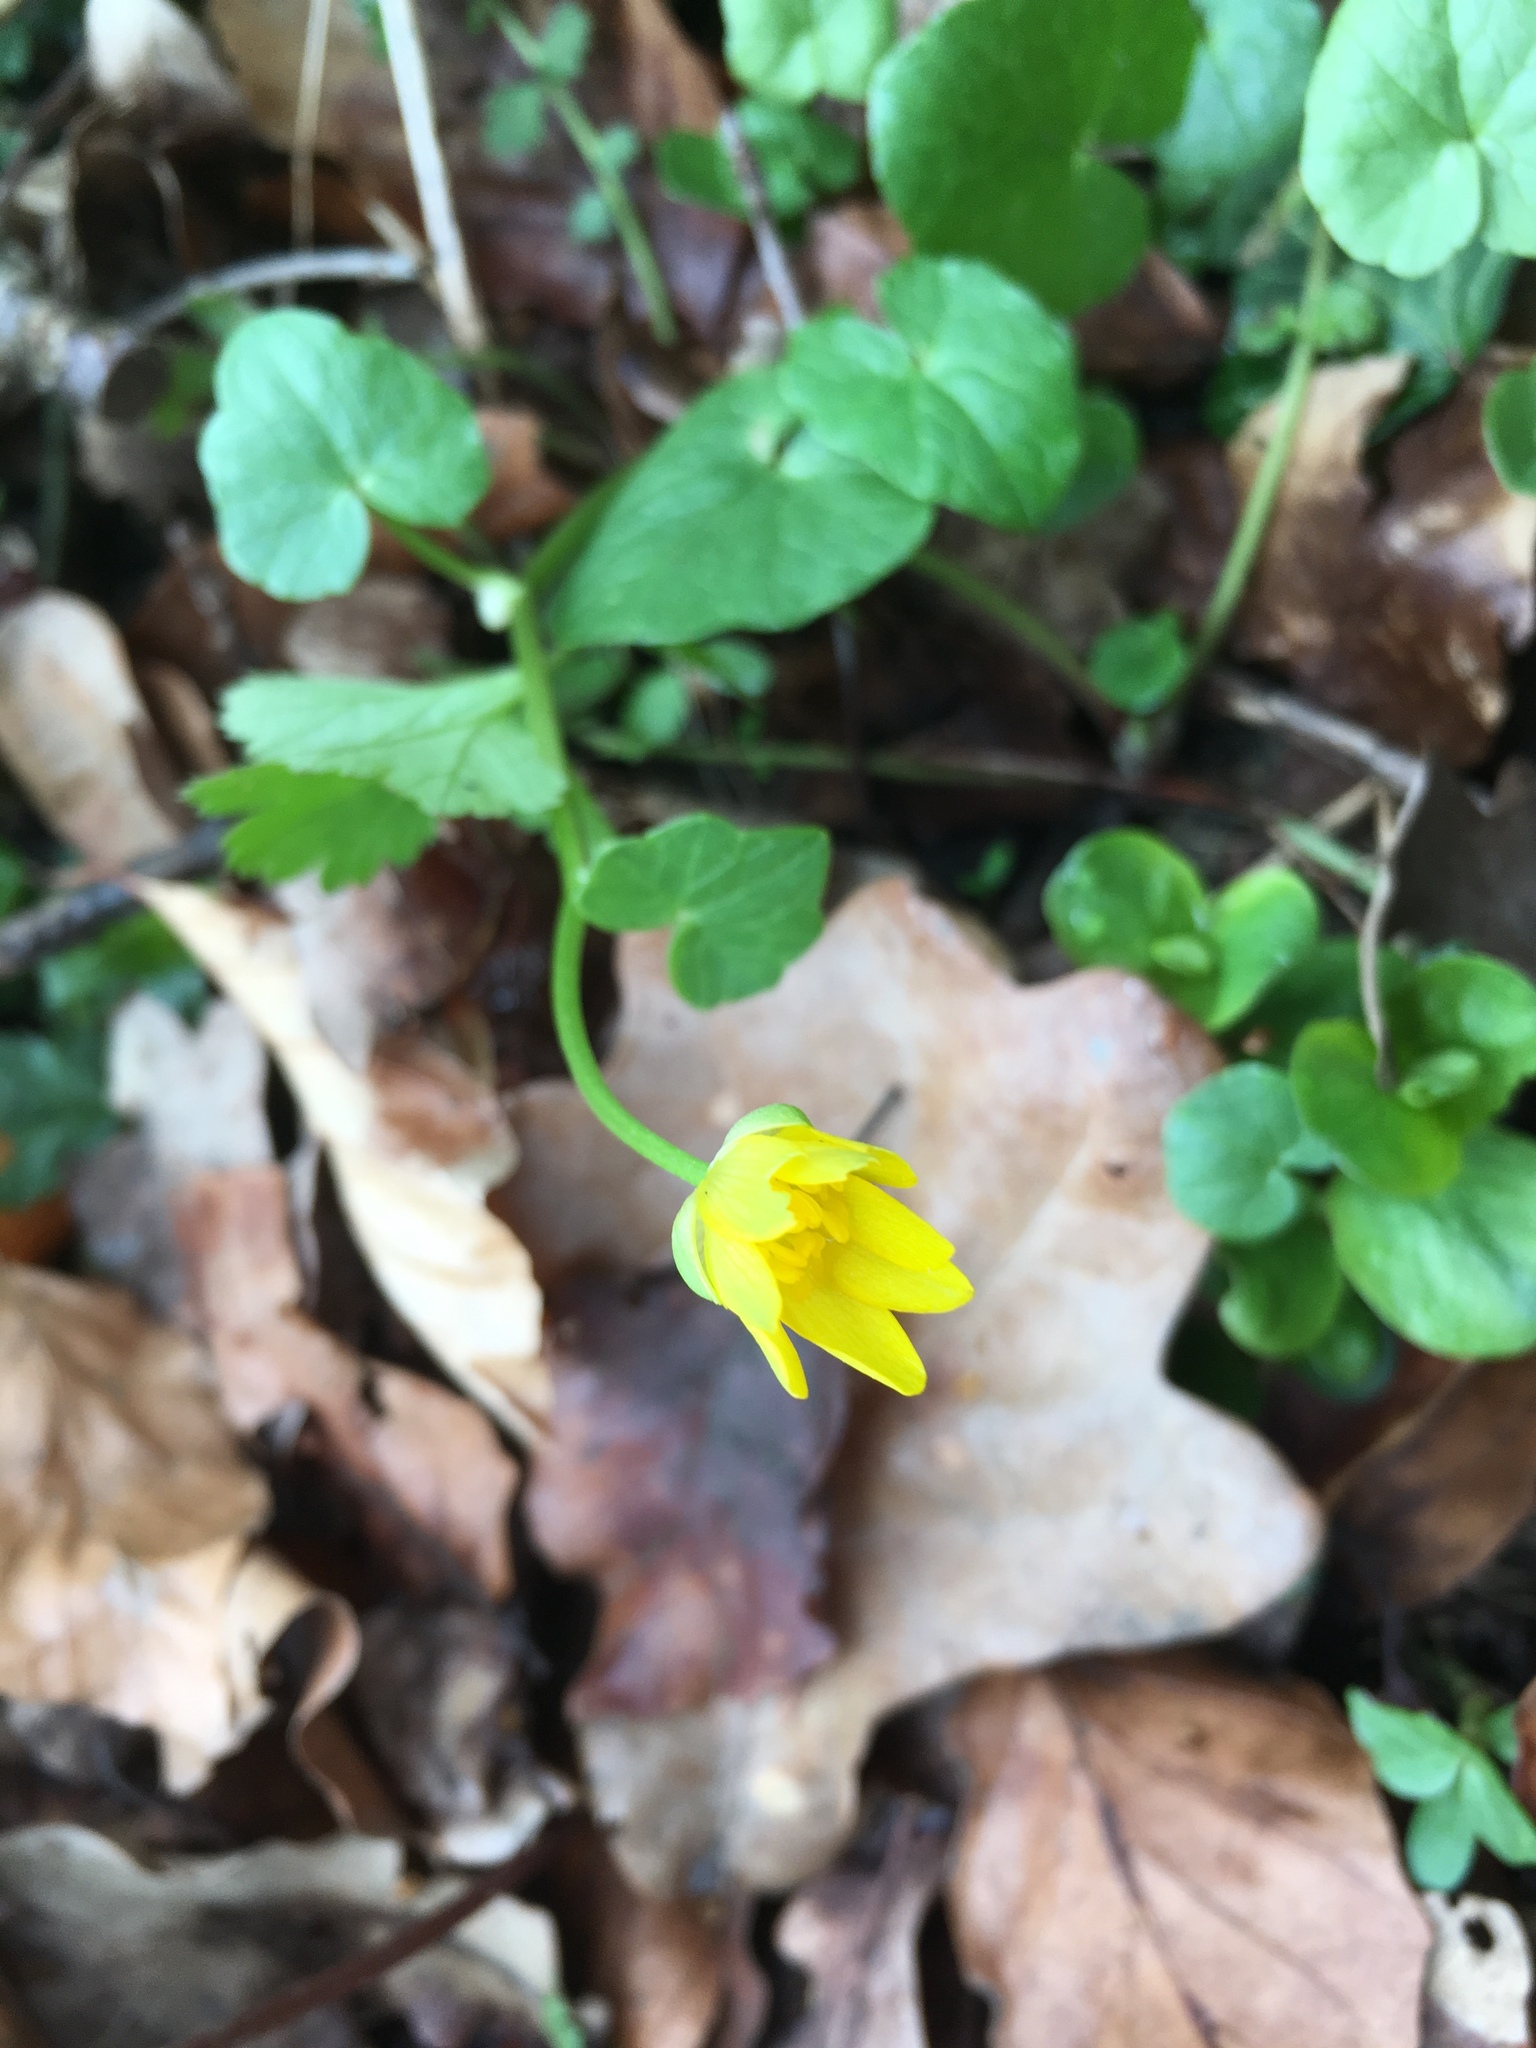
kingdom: Plantae
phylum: Tracheophyta
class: Magnoliopsida
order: Ranunculales
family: Ranunculaceae
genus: Ficaria
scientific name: Ficaria verna
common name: Lesser celandine
